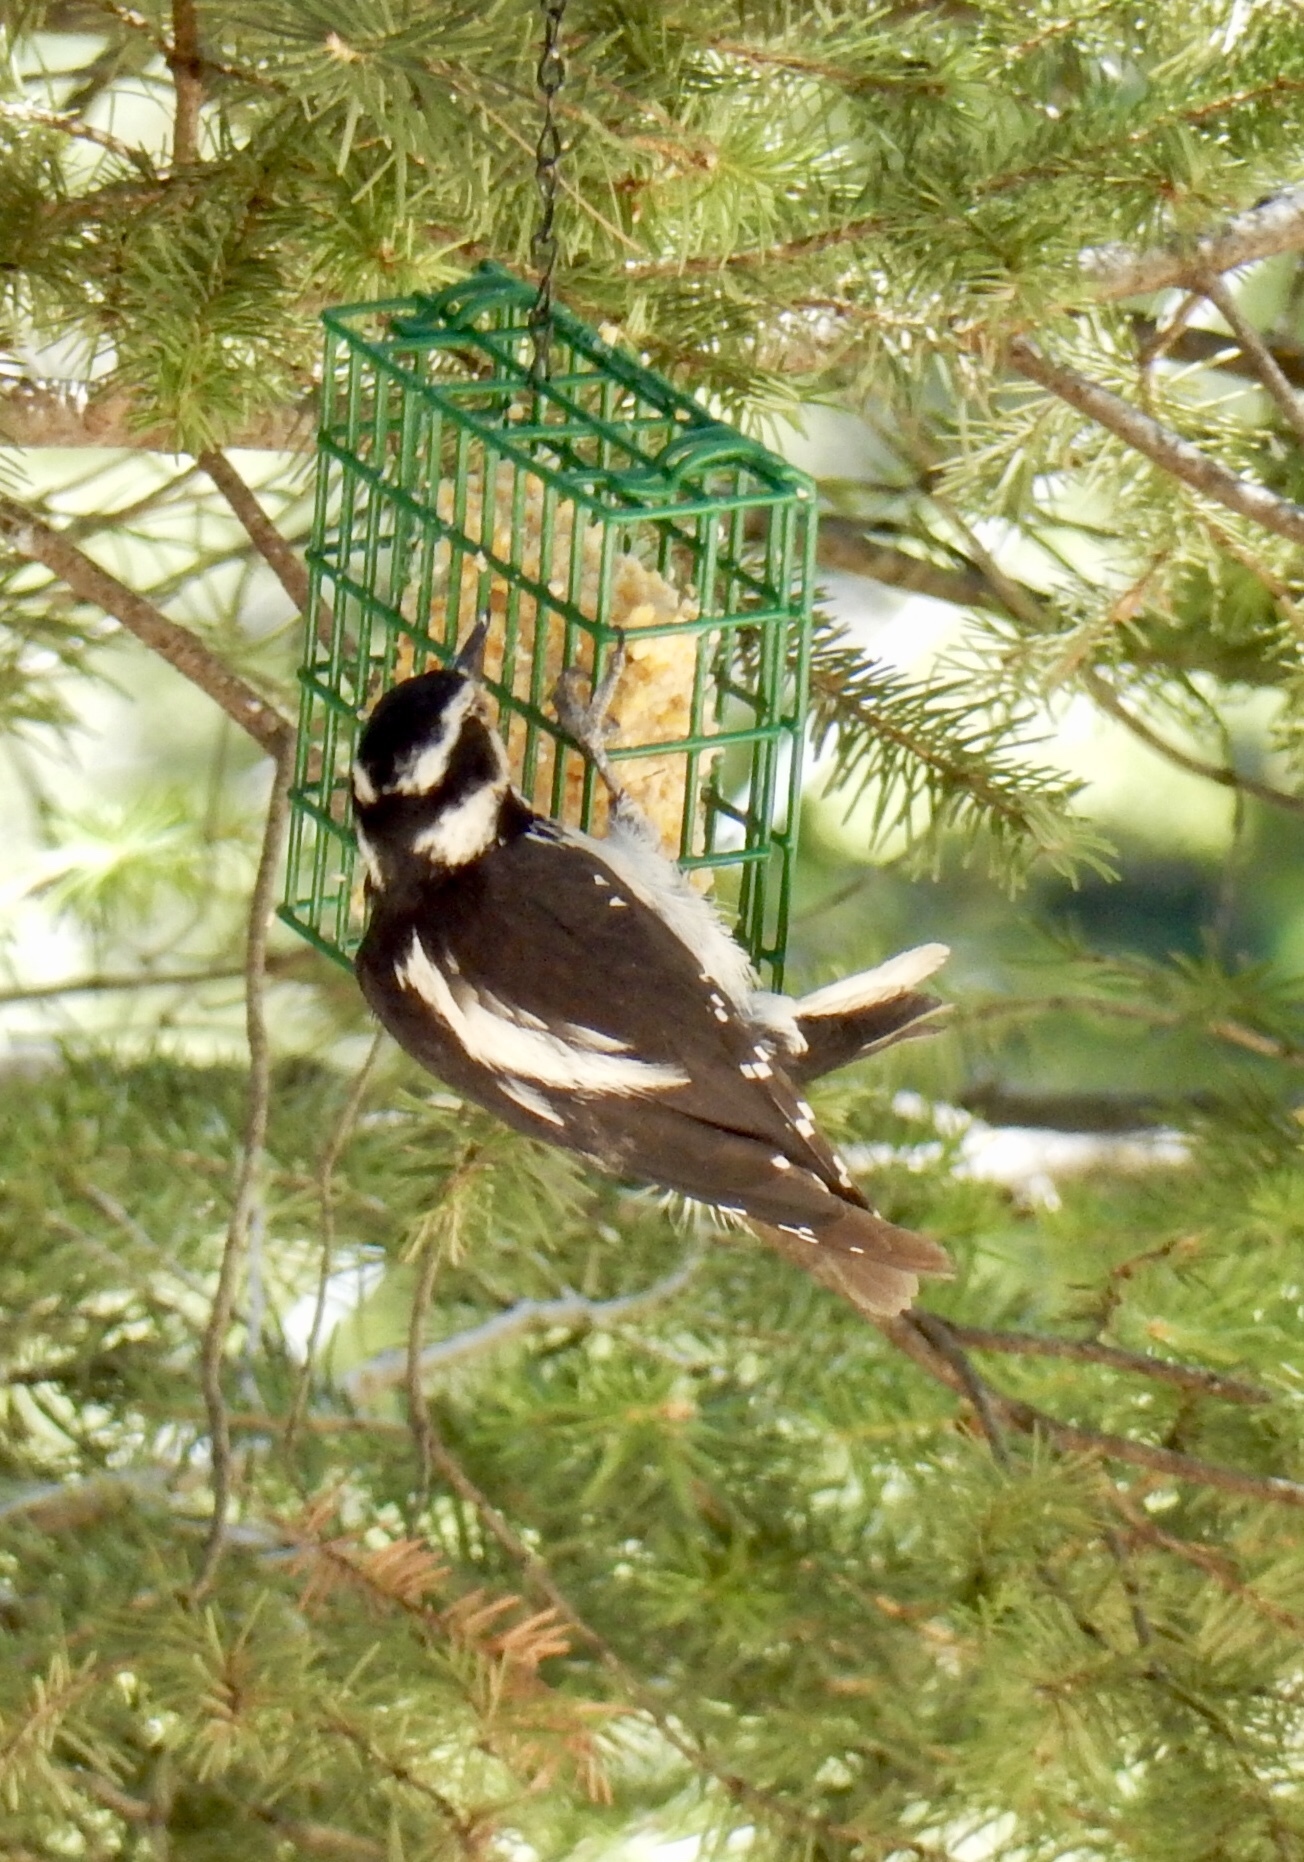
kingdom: Animalia
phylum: Chordata
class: Aves
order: Piciformes
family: Picidae
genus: Leuconotopicus
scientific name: Leuconotopicus villosus
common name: Hairy woodpecker
